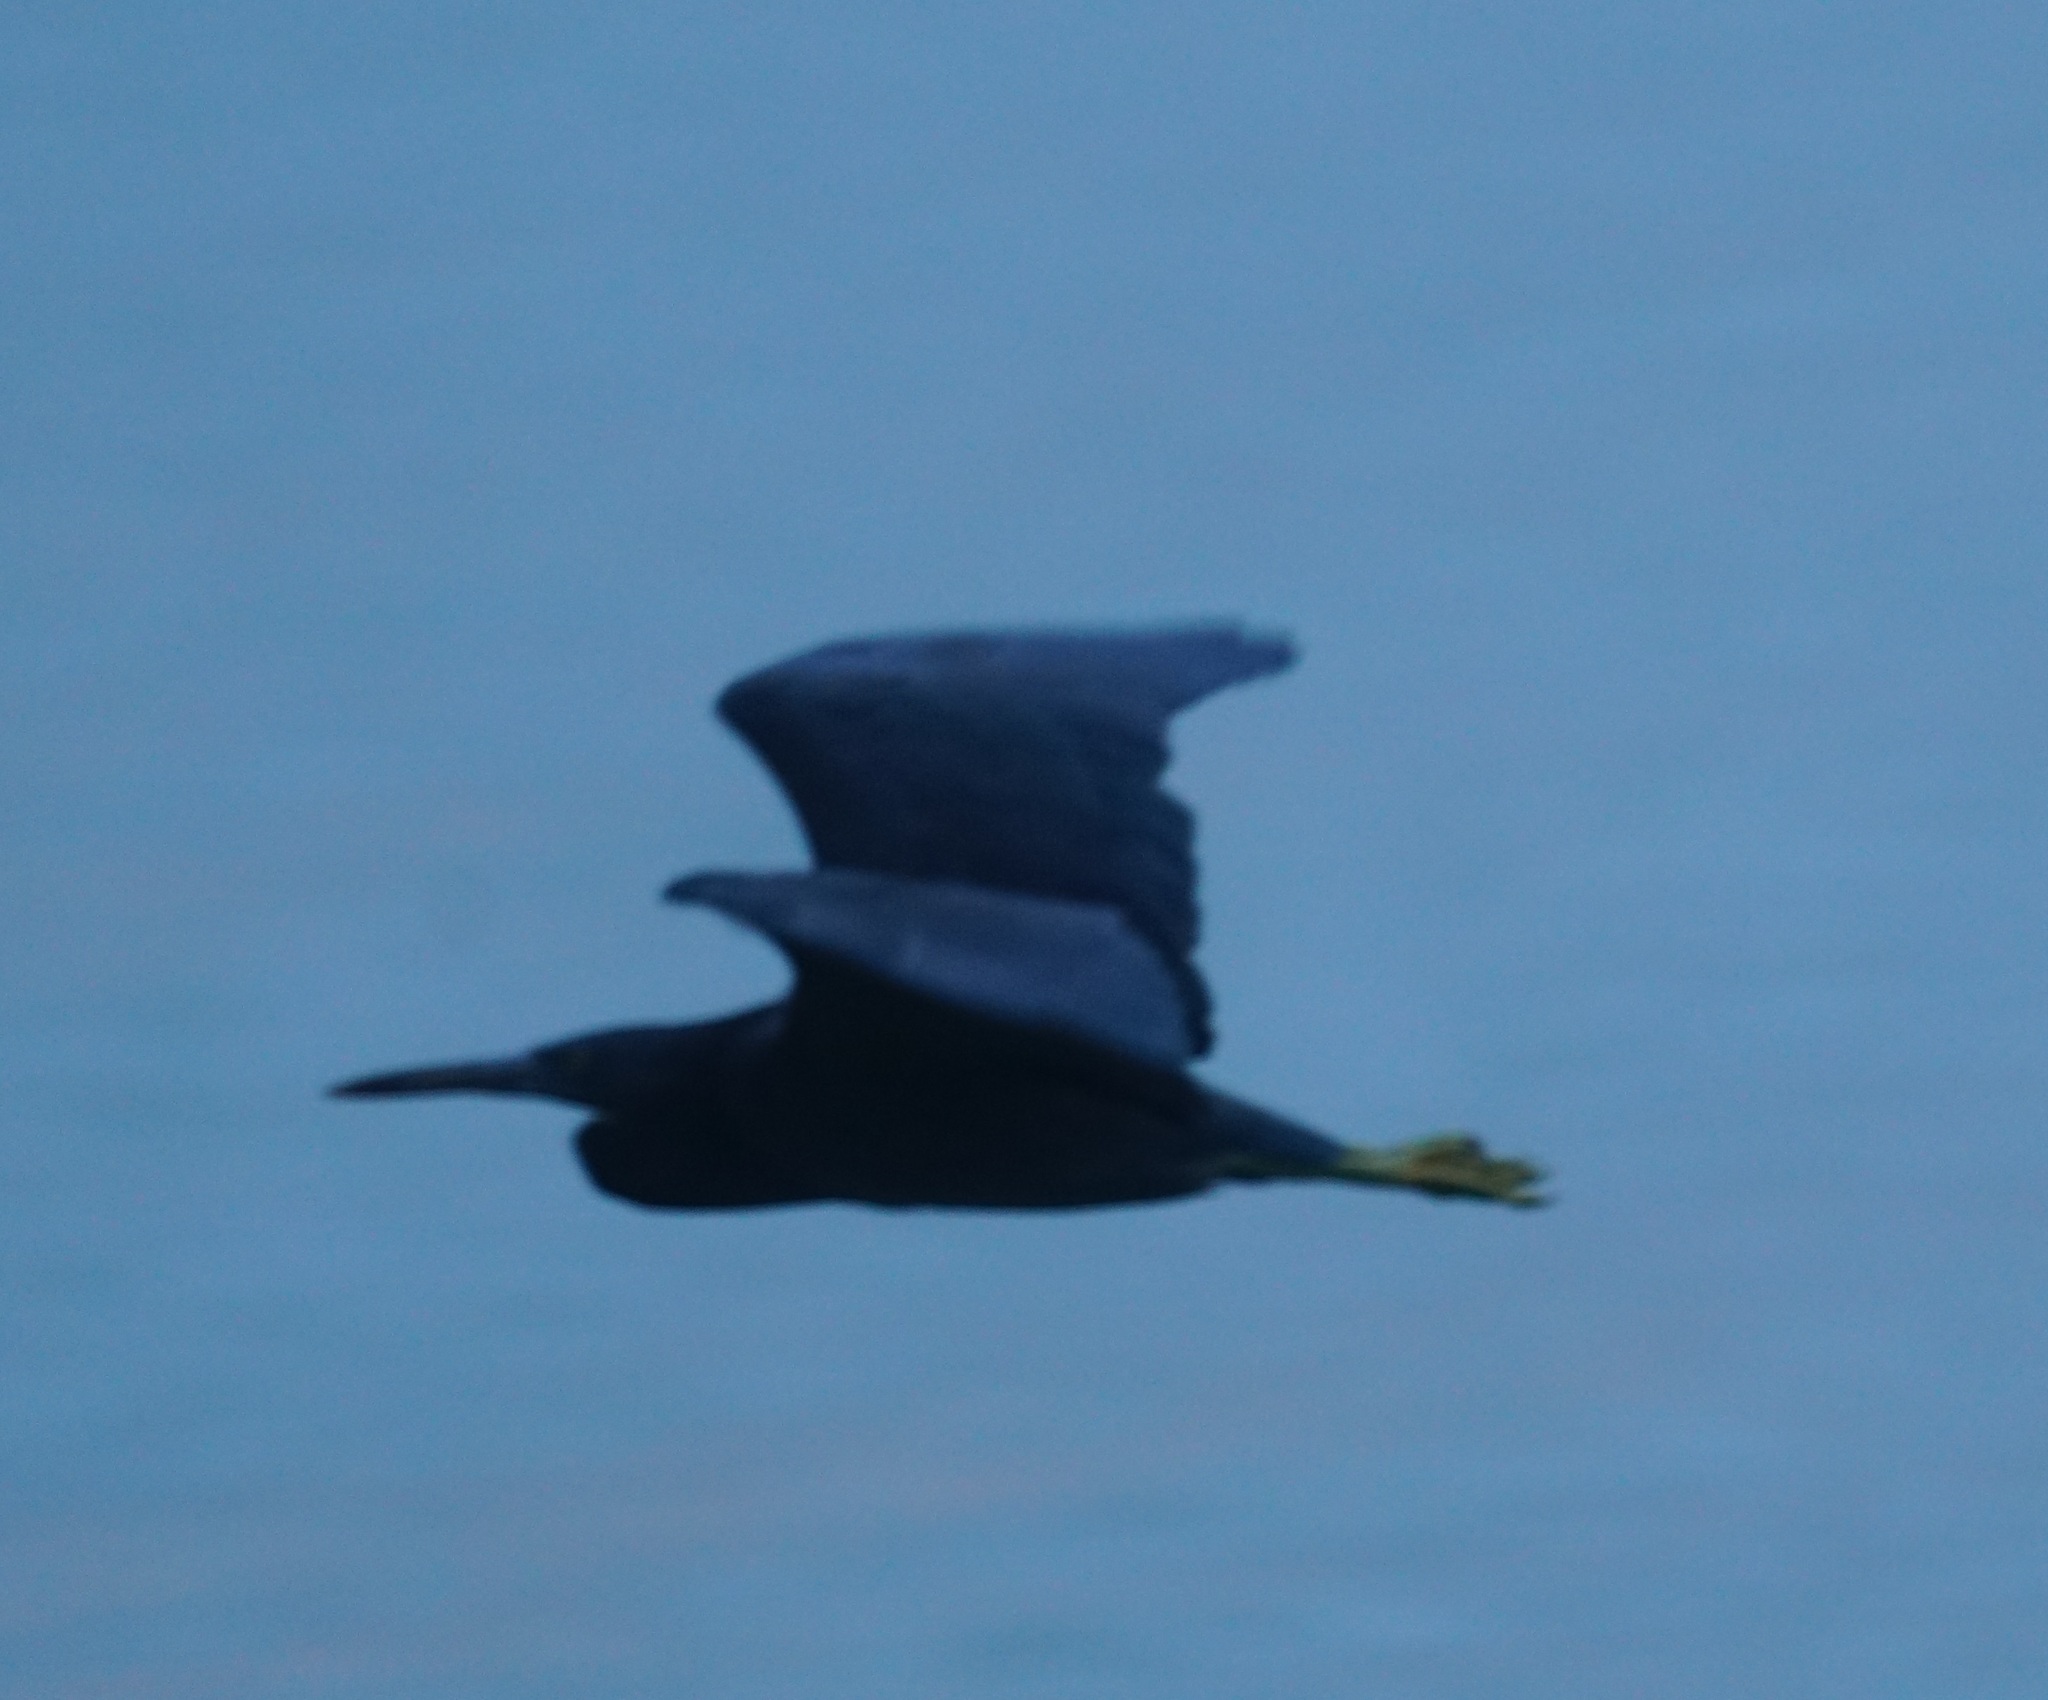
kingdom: Animalia
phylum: Chordata
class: Aves
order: Pelecaniformes
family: Ardeidae
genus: Egretta
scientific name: Egretta sacra
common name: Pacific reef heron
